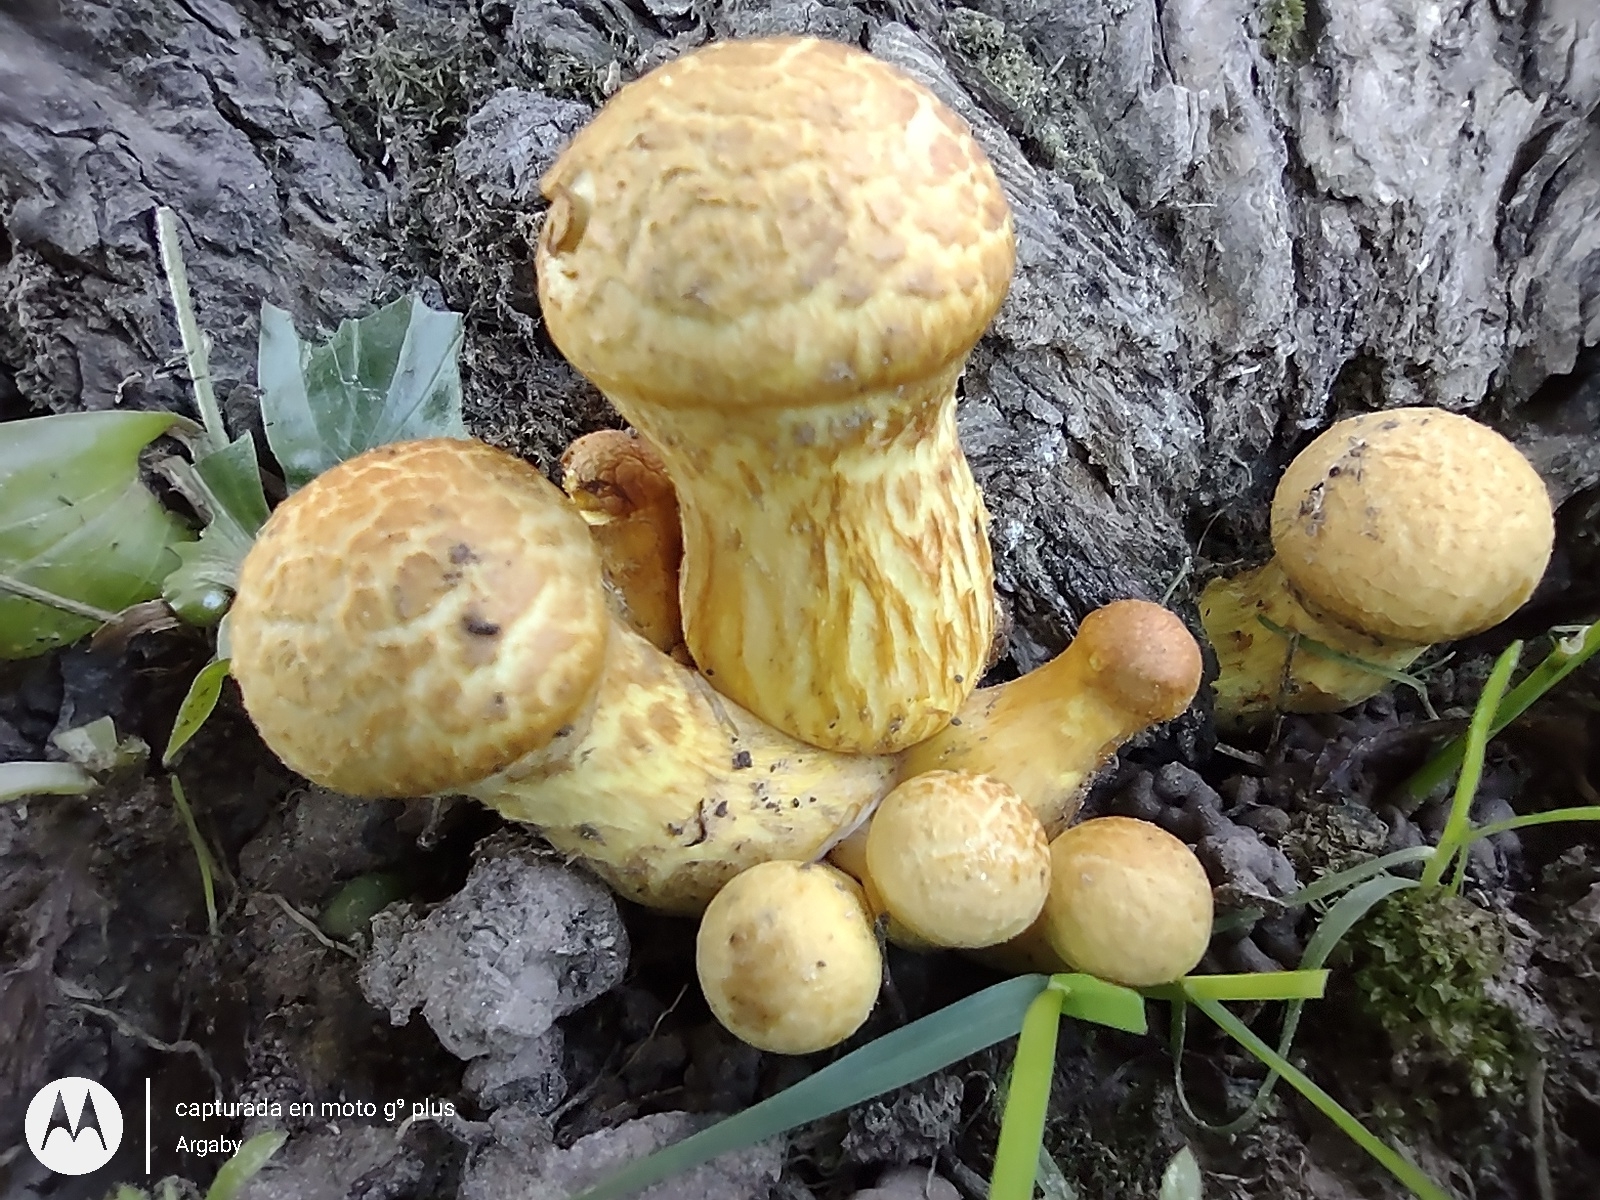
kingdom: Fungi
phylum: Basidiomycota
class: Agaricomycetes
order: Agaricales
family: Hymenogastraceae
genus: Gymnopilus
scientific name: Gymnopilus junonius
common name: Spectacular rustgill
